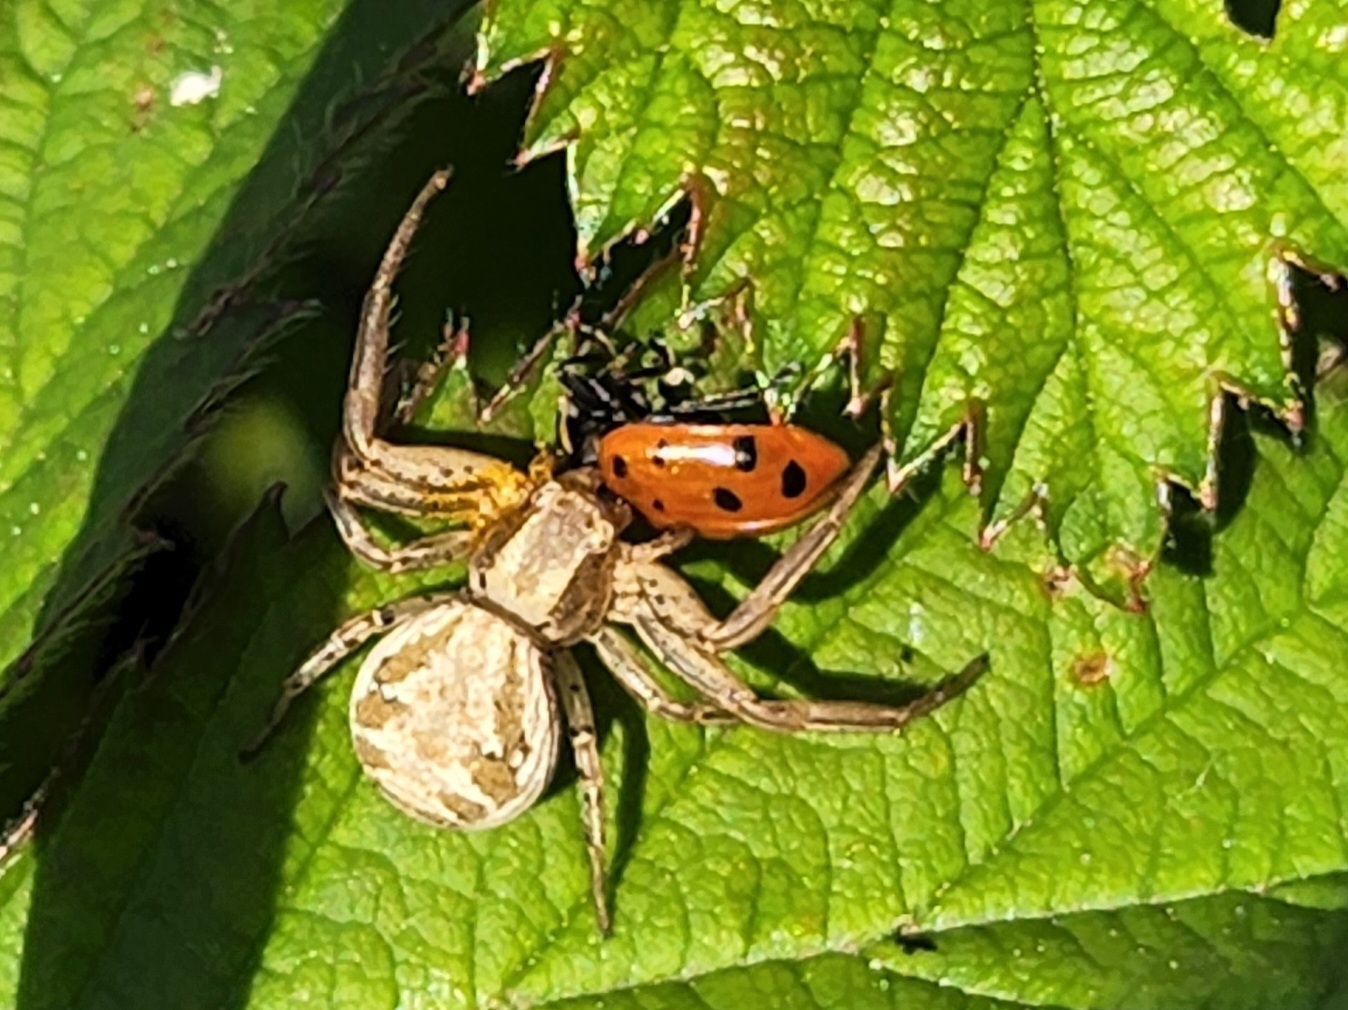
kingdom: Animalia
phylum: Arthropoda
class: Insecta
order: Coleoptera
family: Coccinellidae
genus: Hippodamia
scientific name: Hippodamia
